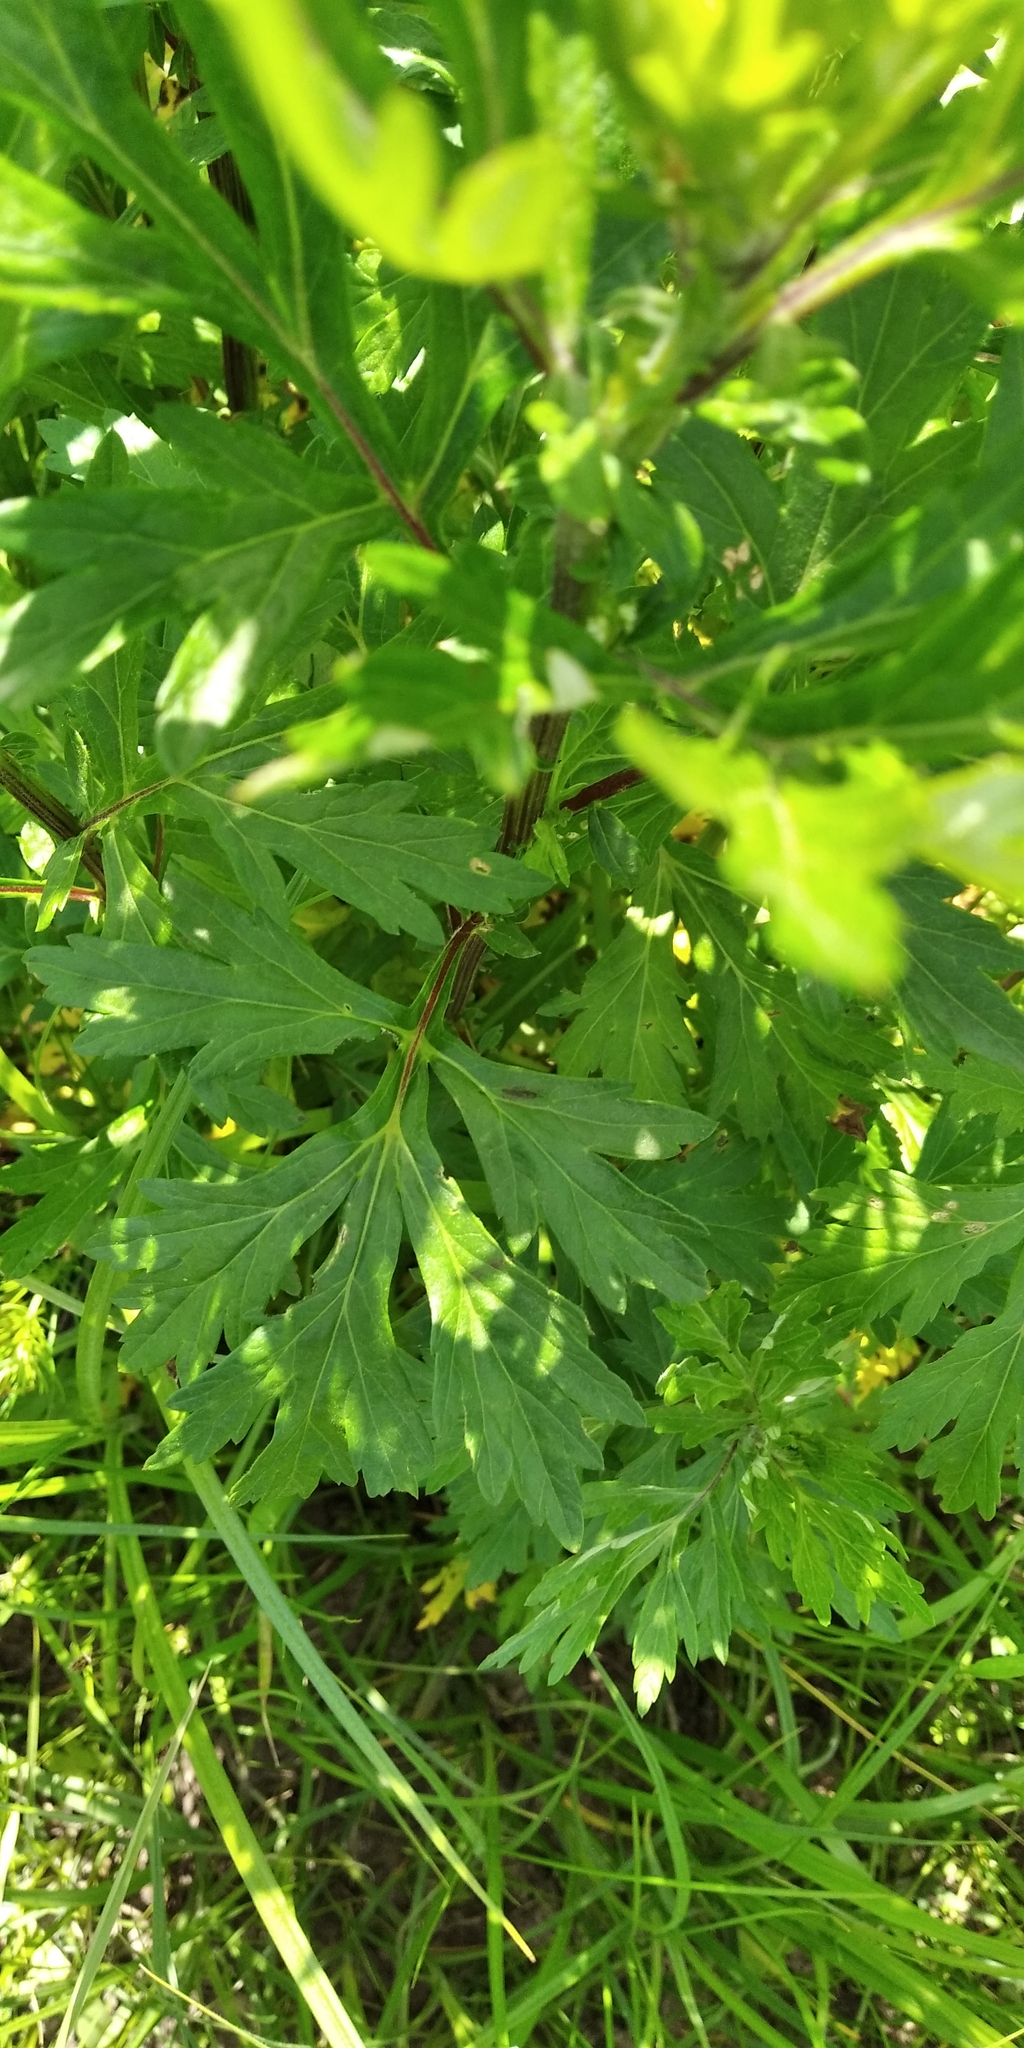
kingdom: Plantae
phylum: Tracheophyta
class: Magnoliopsida
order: Asterales
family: Asteraceae
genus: Artemisia
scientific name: Artemisia vulgaris
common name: Mugwort
